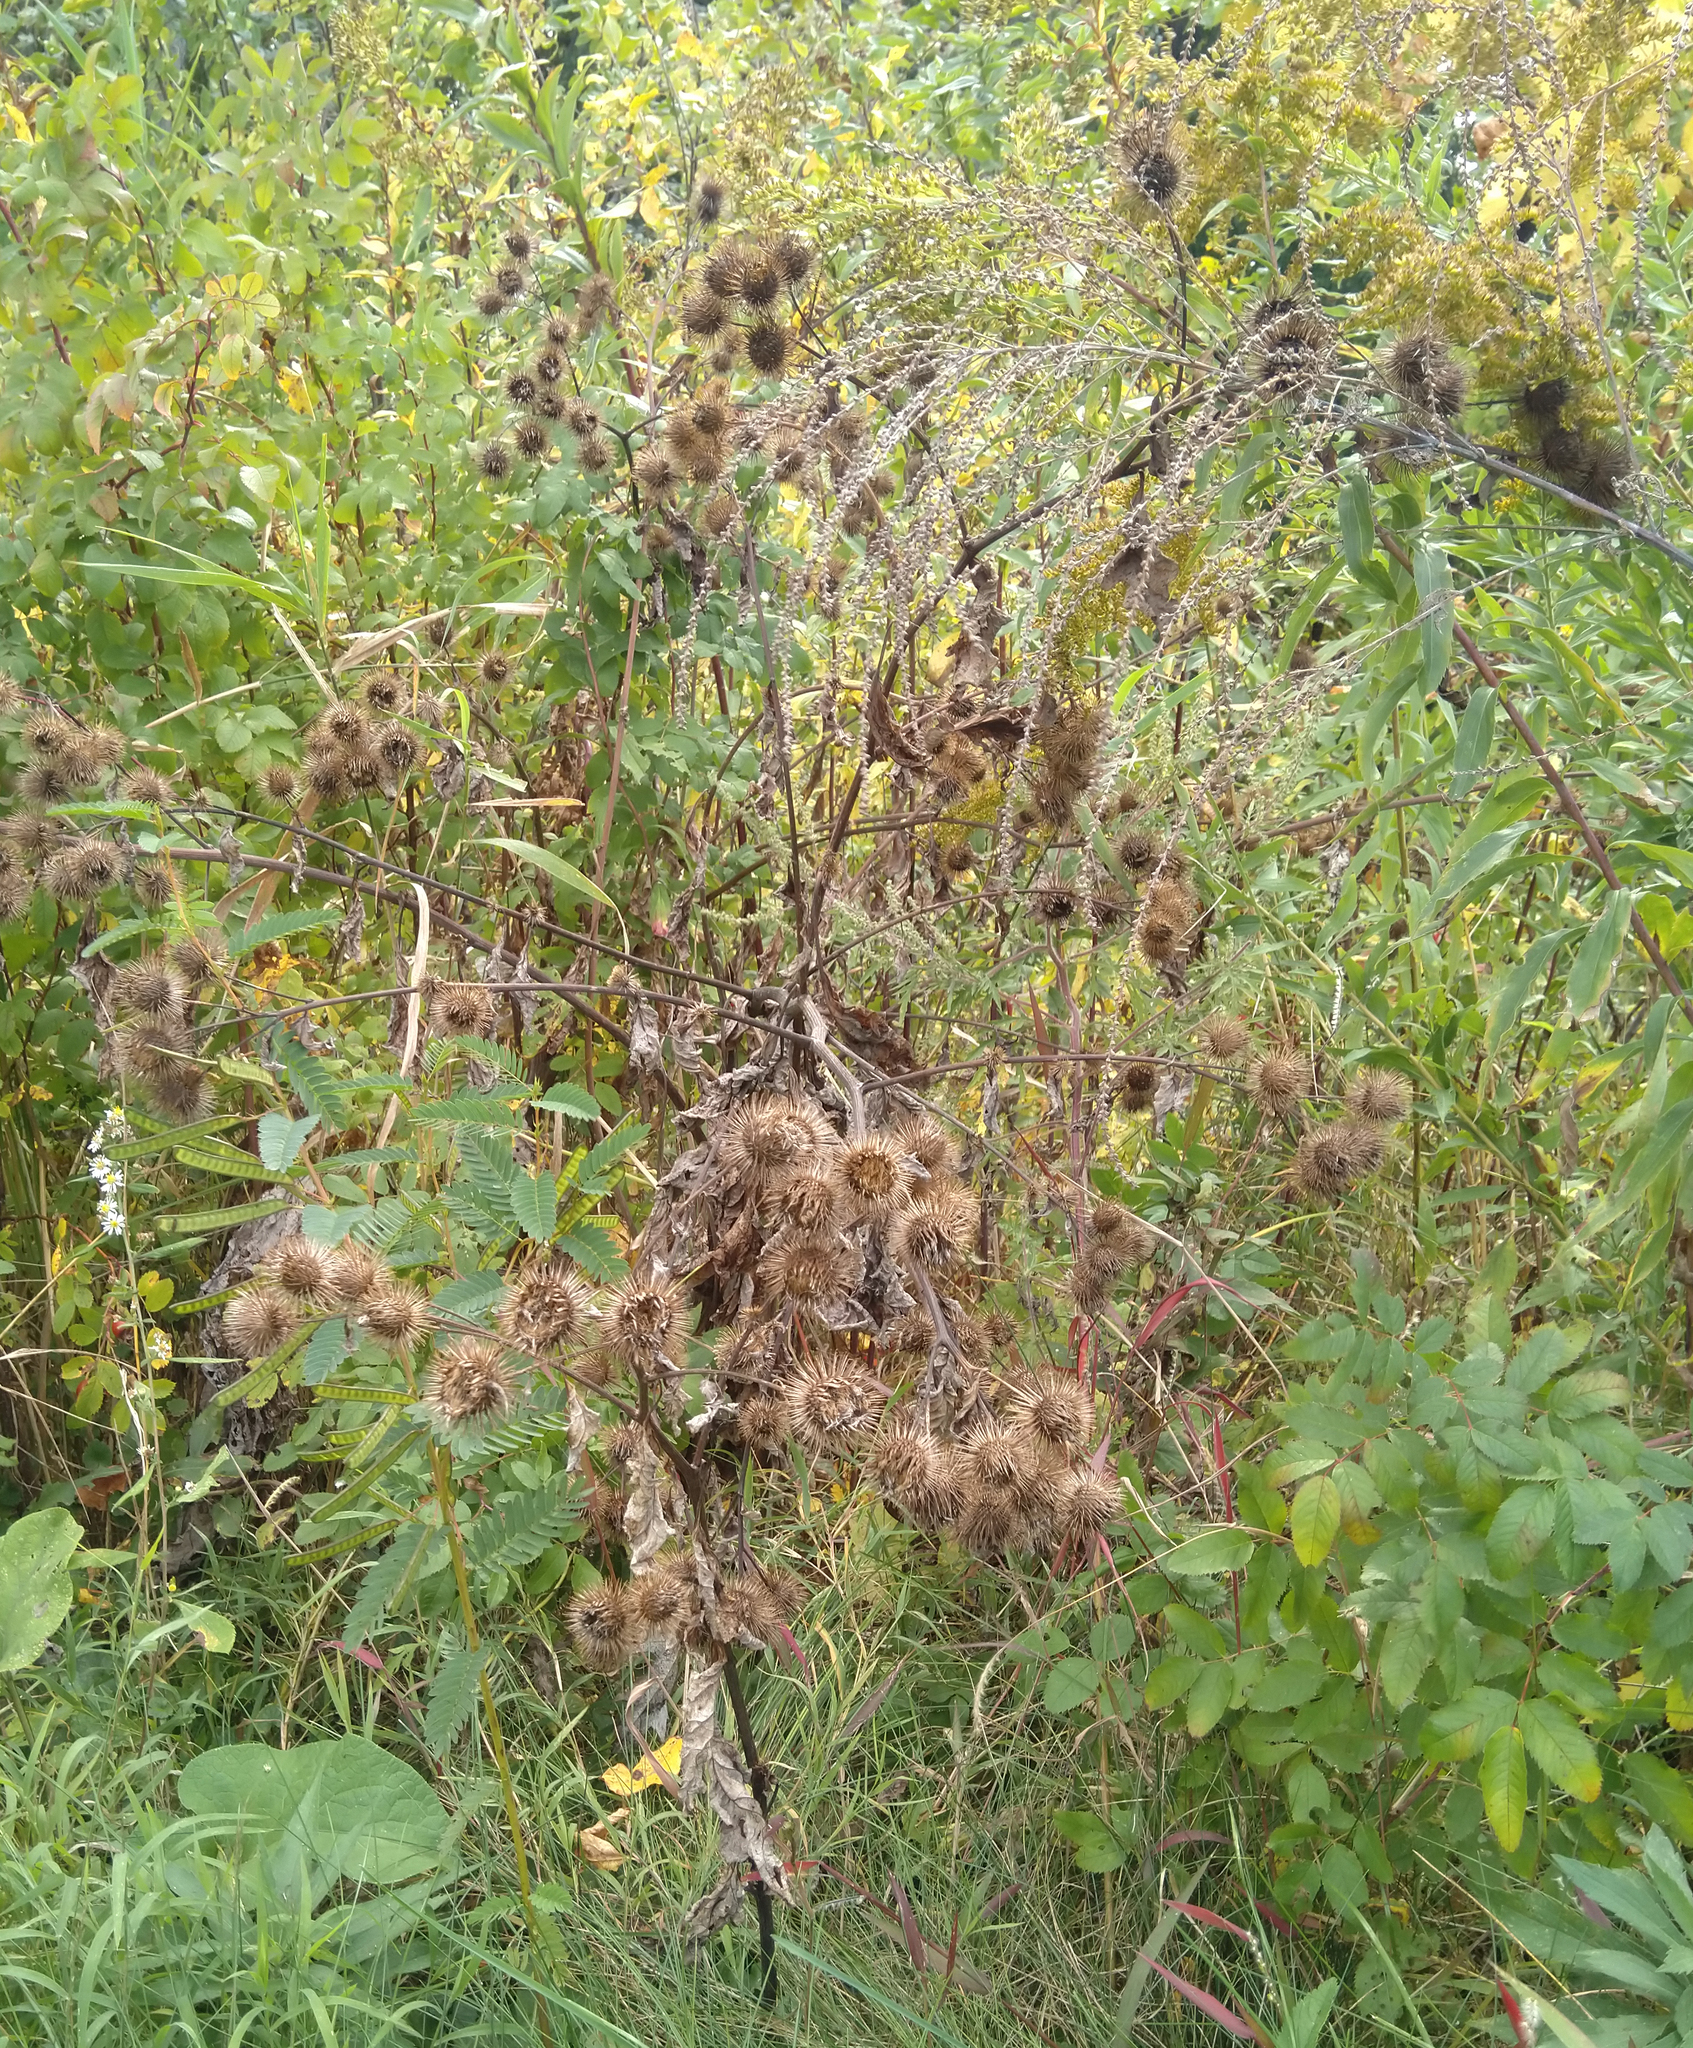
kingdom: Plantae
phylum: Tracheophyta
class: Magnoliopsida
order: Asterales
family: Asteraceae
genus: Arctium
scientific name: Arctium lappa
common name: Greater burdock
